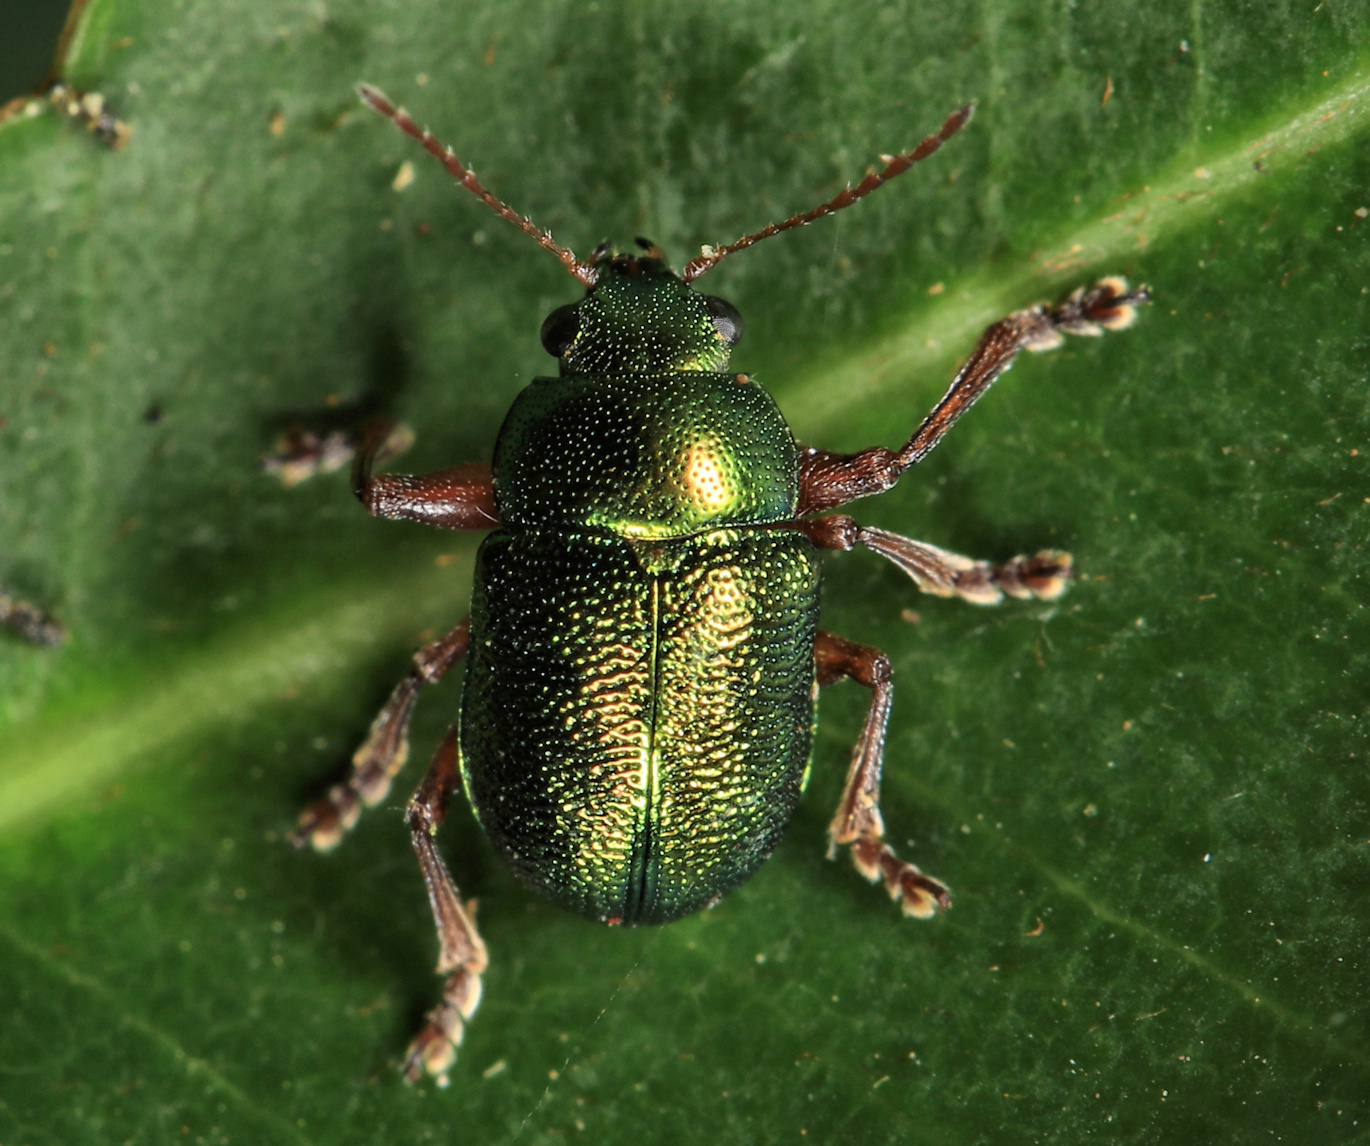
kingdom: Animalia
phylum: Arthropoda
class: Insecta
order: Coleoptera
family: Chrysomelidae
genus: Colasposoma
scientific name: Colasposoma
